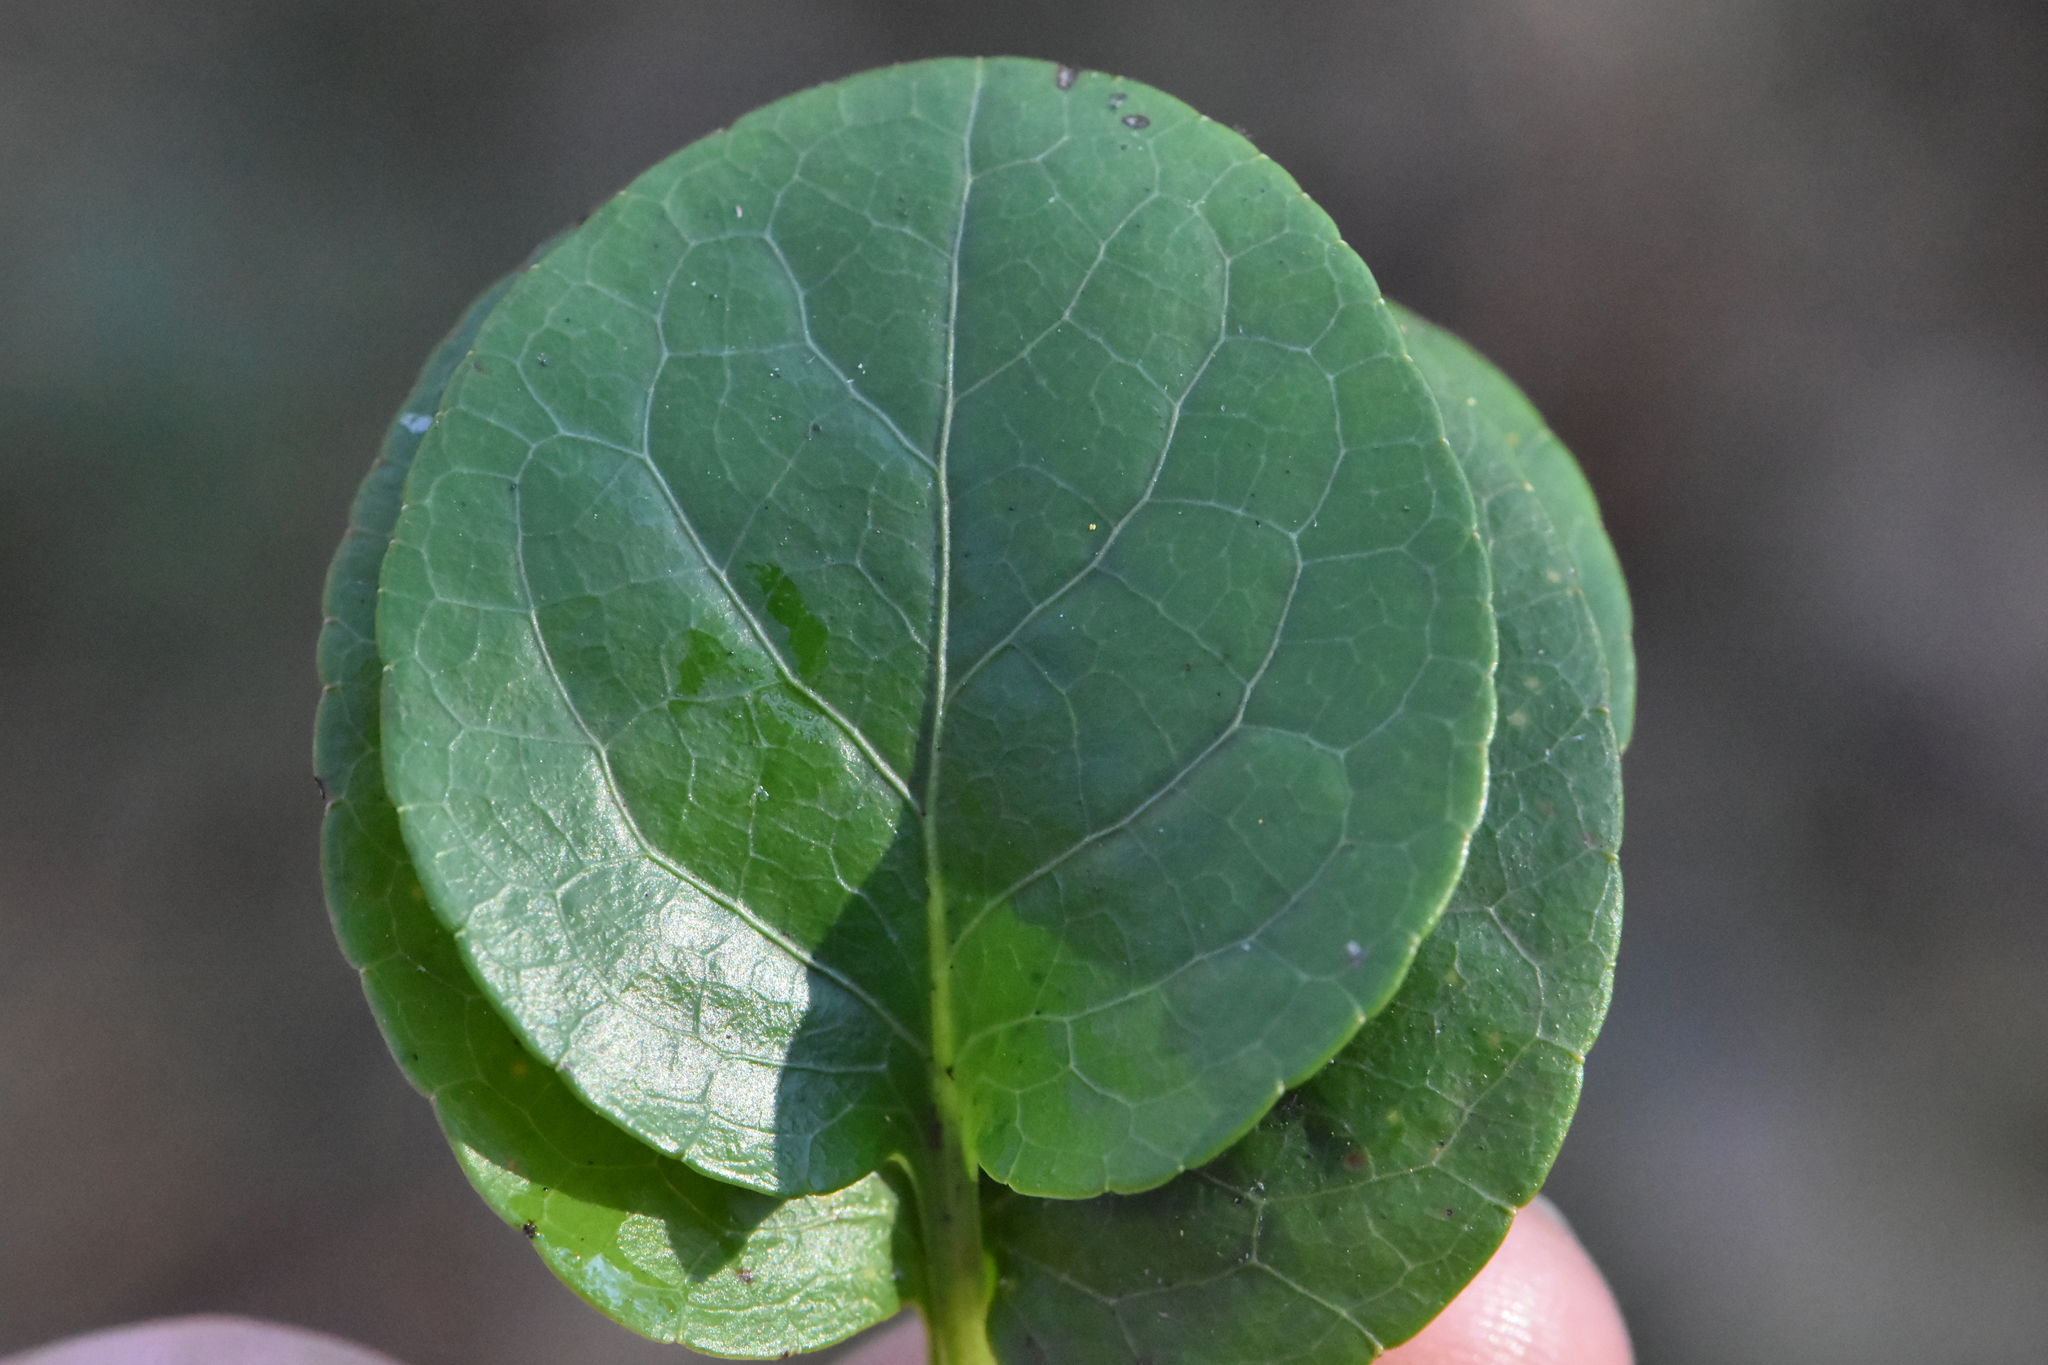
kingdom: Plantae
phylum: Tracheophyta
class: Magnoliopsida
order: Ericales
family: Ericaceae
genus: Pyrola
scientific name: Pyrola rotundifolia
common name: Round-leaved wintergreen
